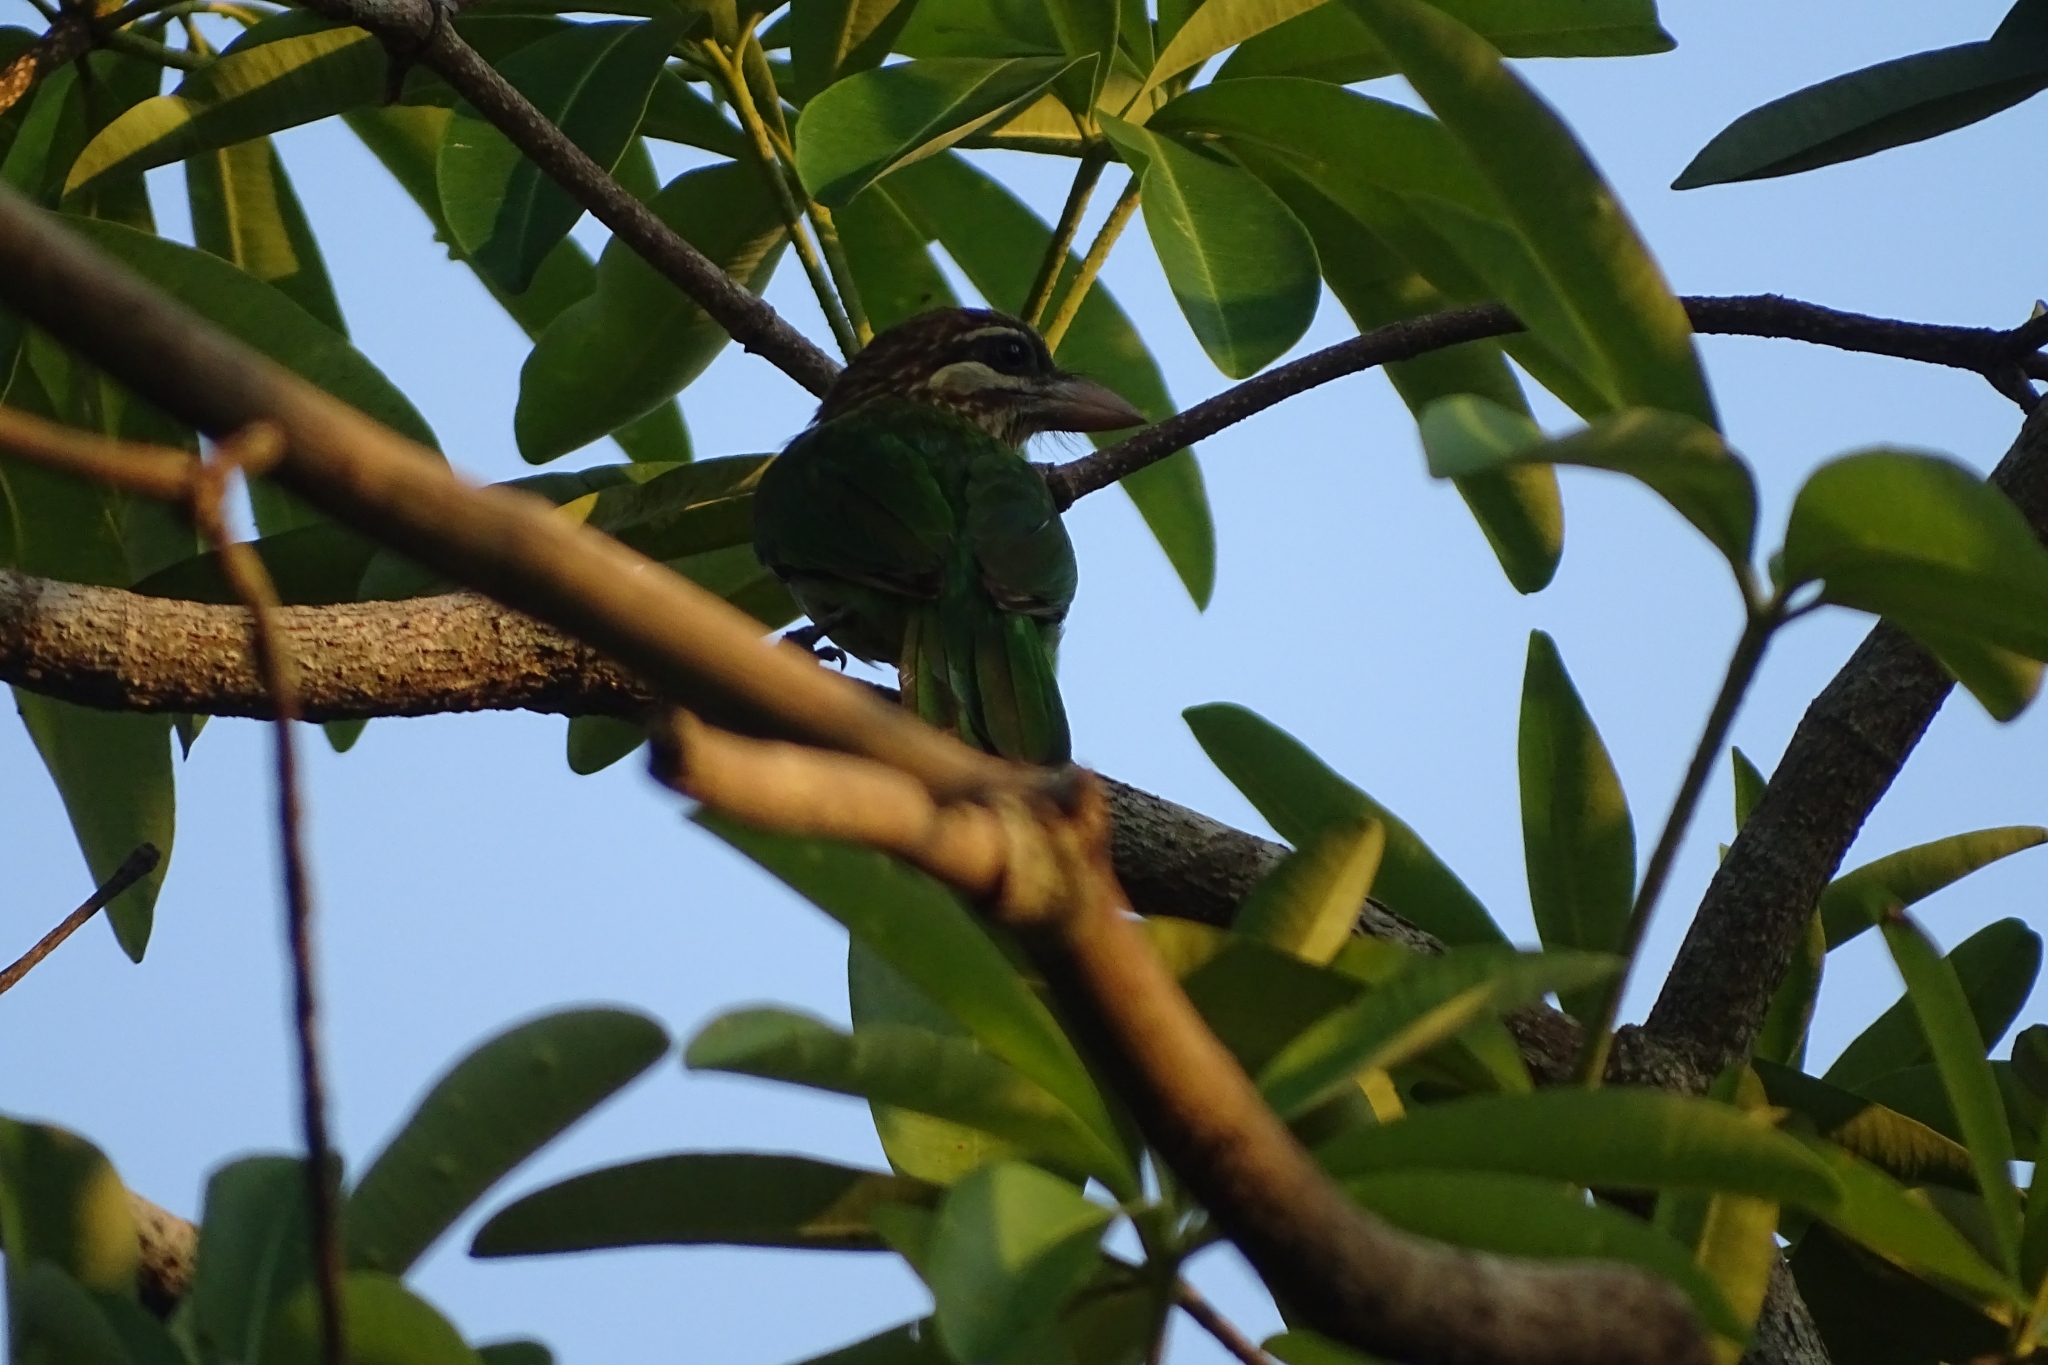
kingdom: Animalia
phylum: Chordata
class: Aves
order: Piciformes
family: Megalaimidae
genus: Psilopogon
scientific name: Psilopogon viridis
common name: White-cheeked barbet
